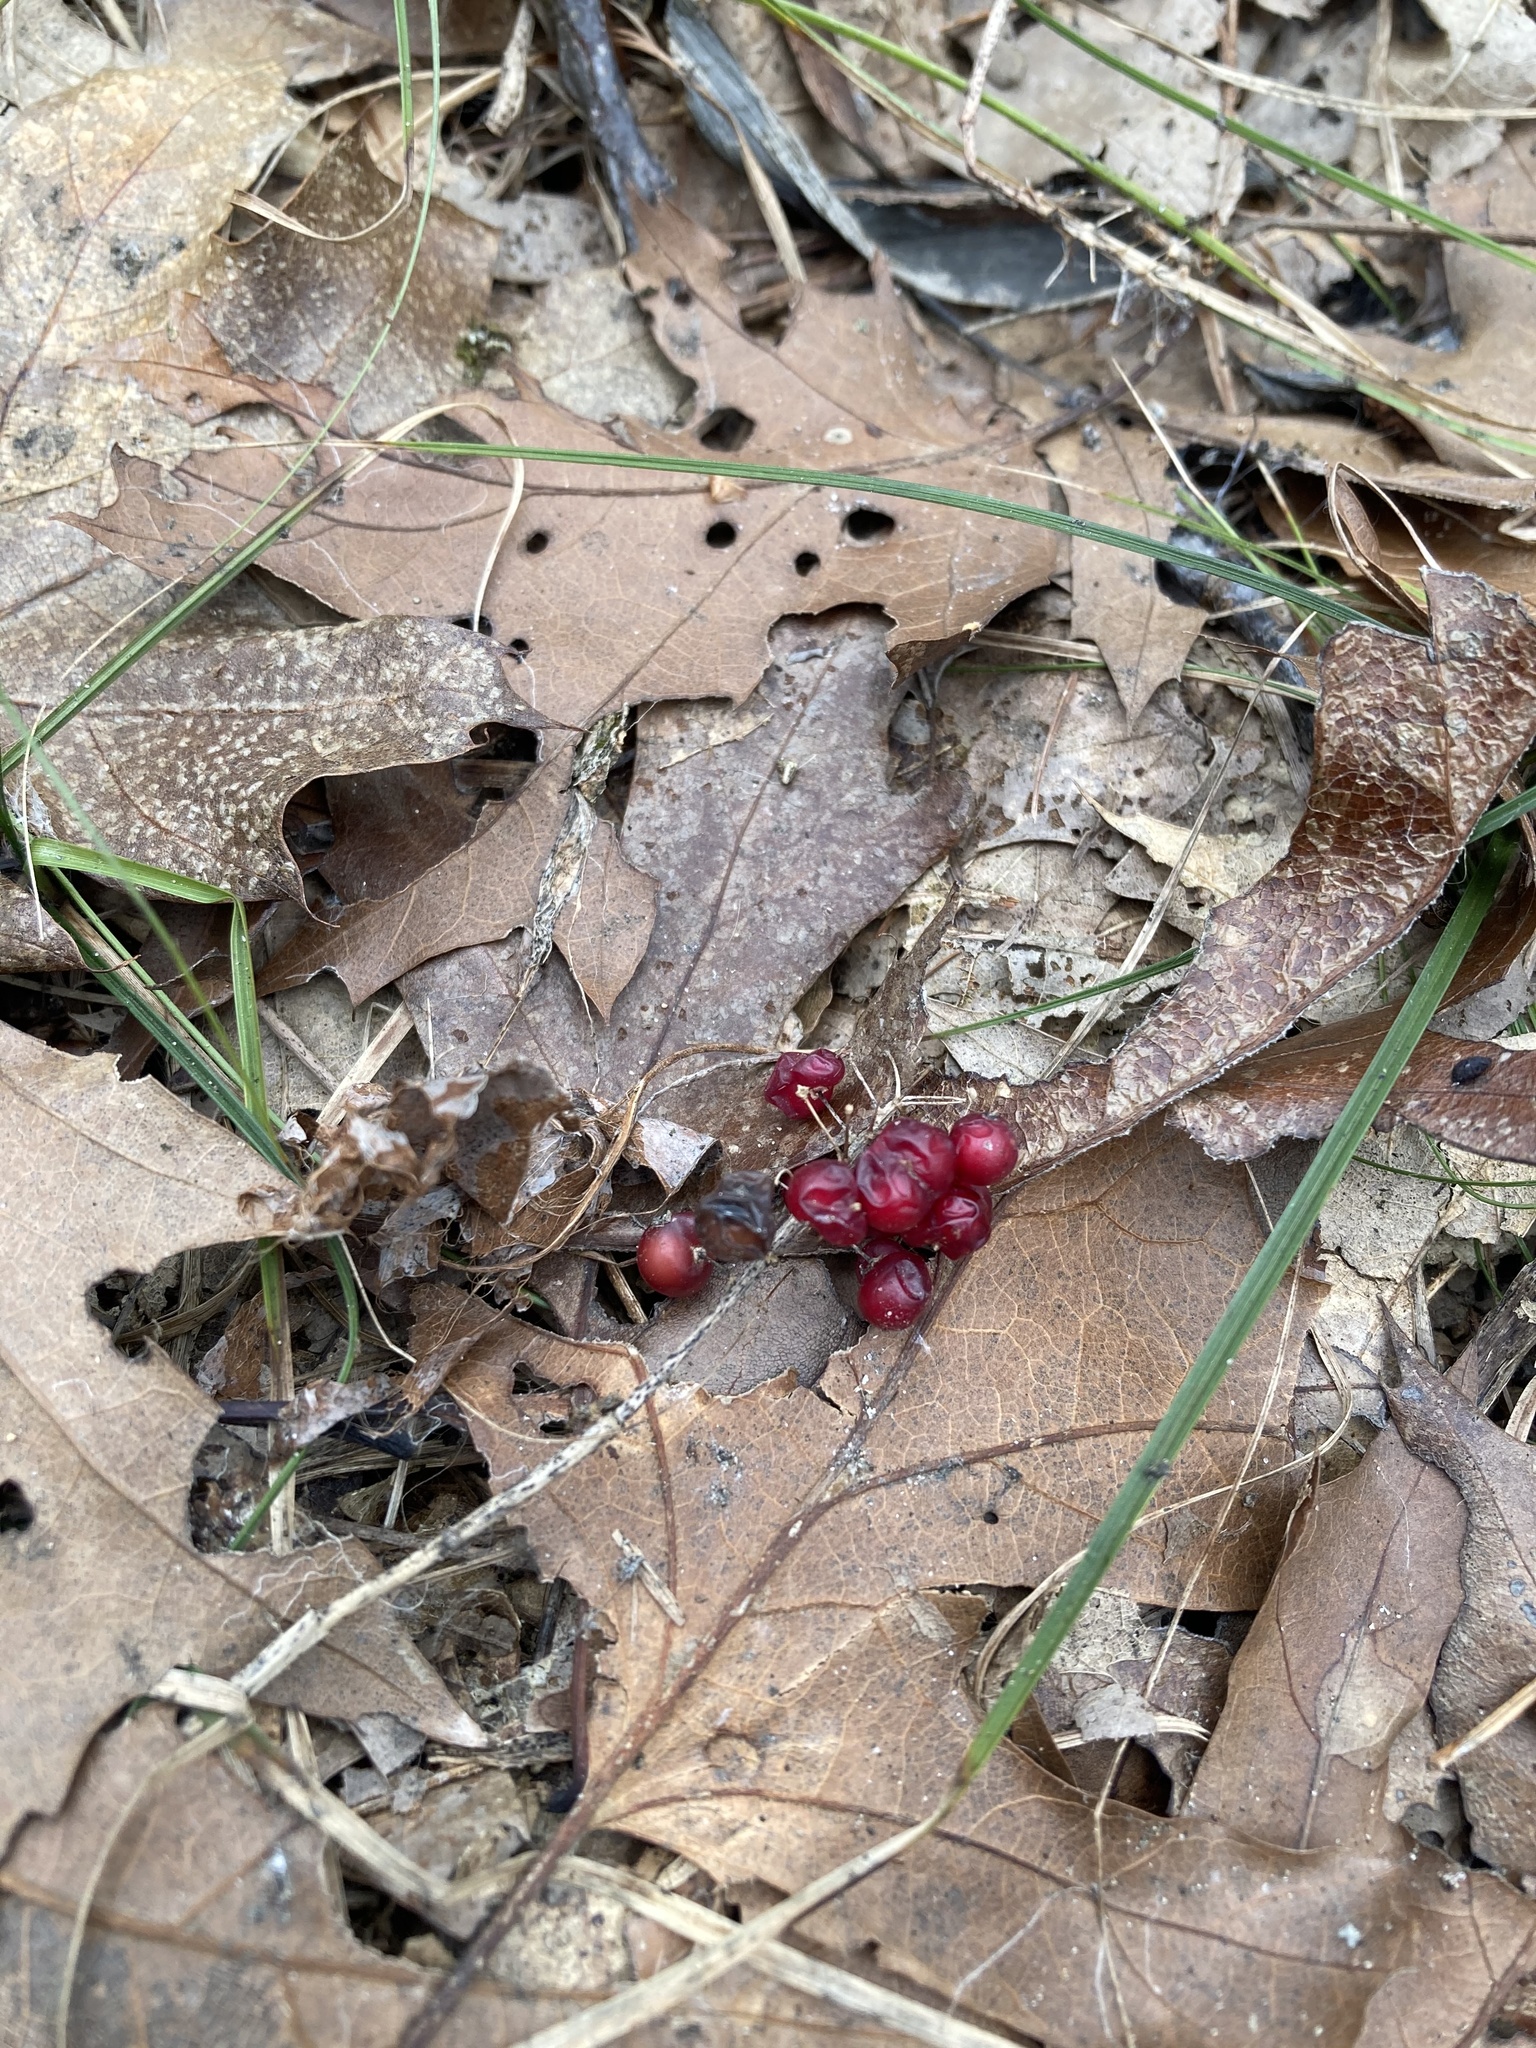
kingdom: Plantae
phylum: Tracheophyta
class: Liliopsida
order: Asparagales
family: Asparagaceae
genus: Maianthemum
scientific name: Maianthemum canadense
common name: False lily-of-the-valley
